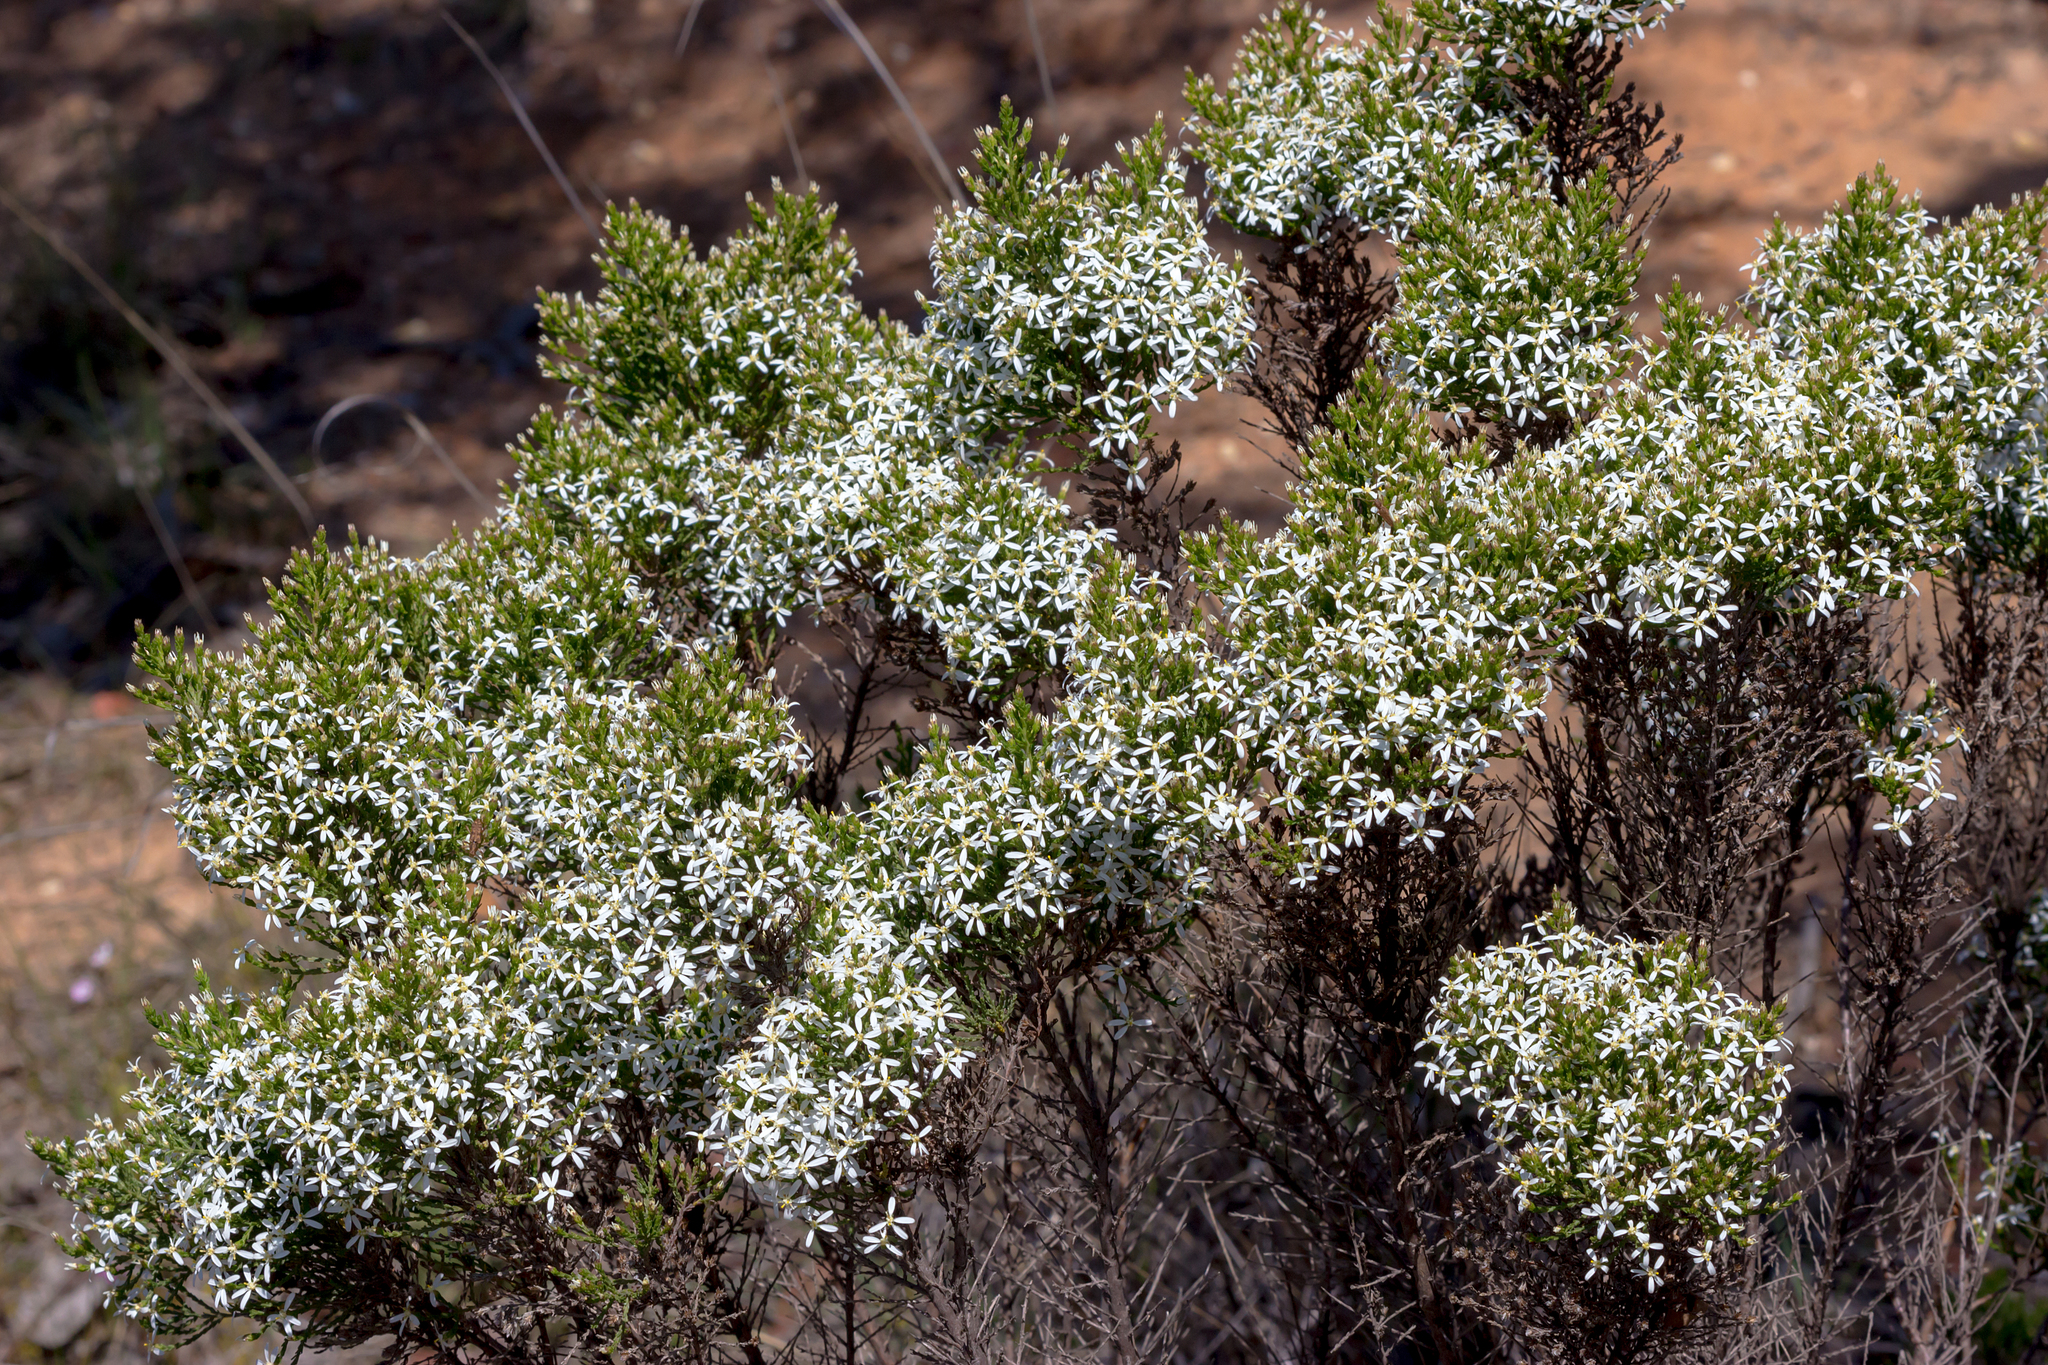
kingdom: Plantae
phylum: Tracheophyta
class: Magnoliopsida
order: Asterales
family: Asteraceae
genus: Olearia
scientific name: Olearia teretifolia
